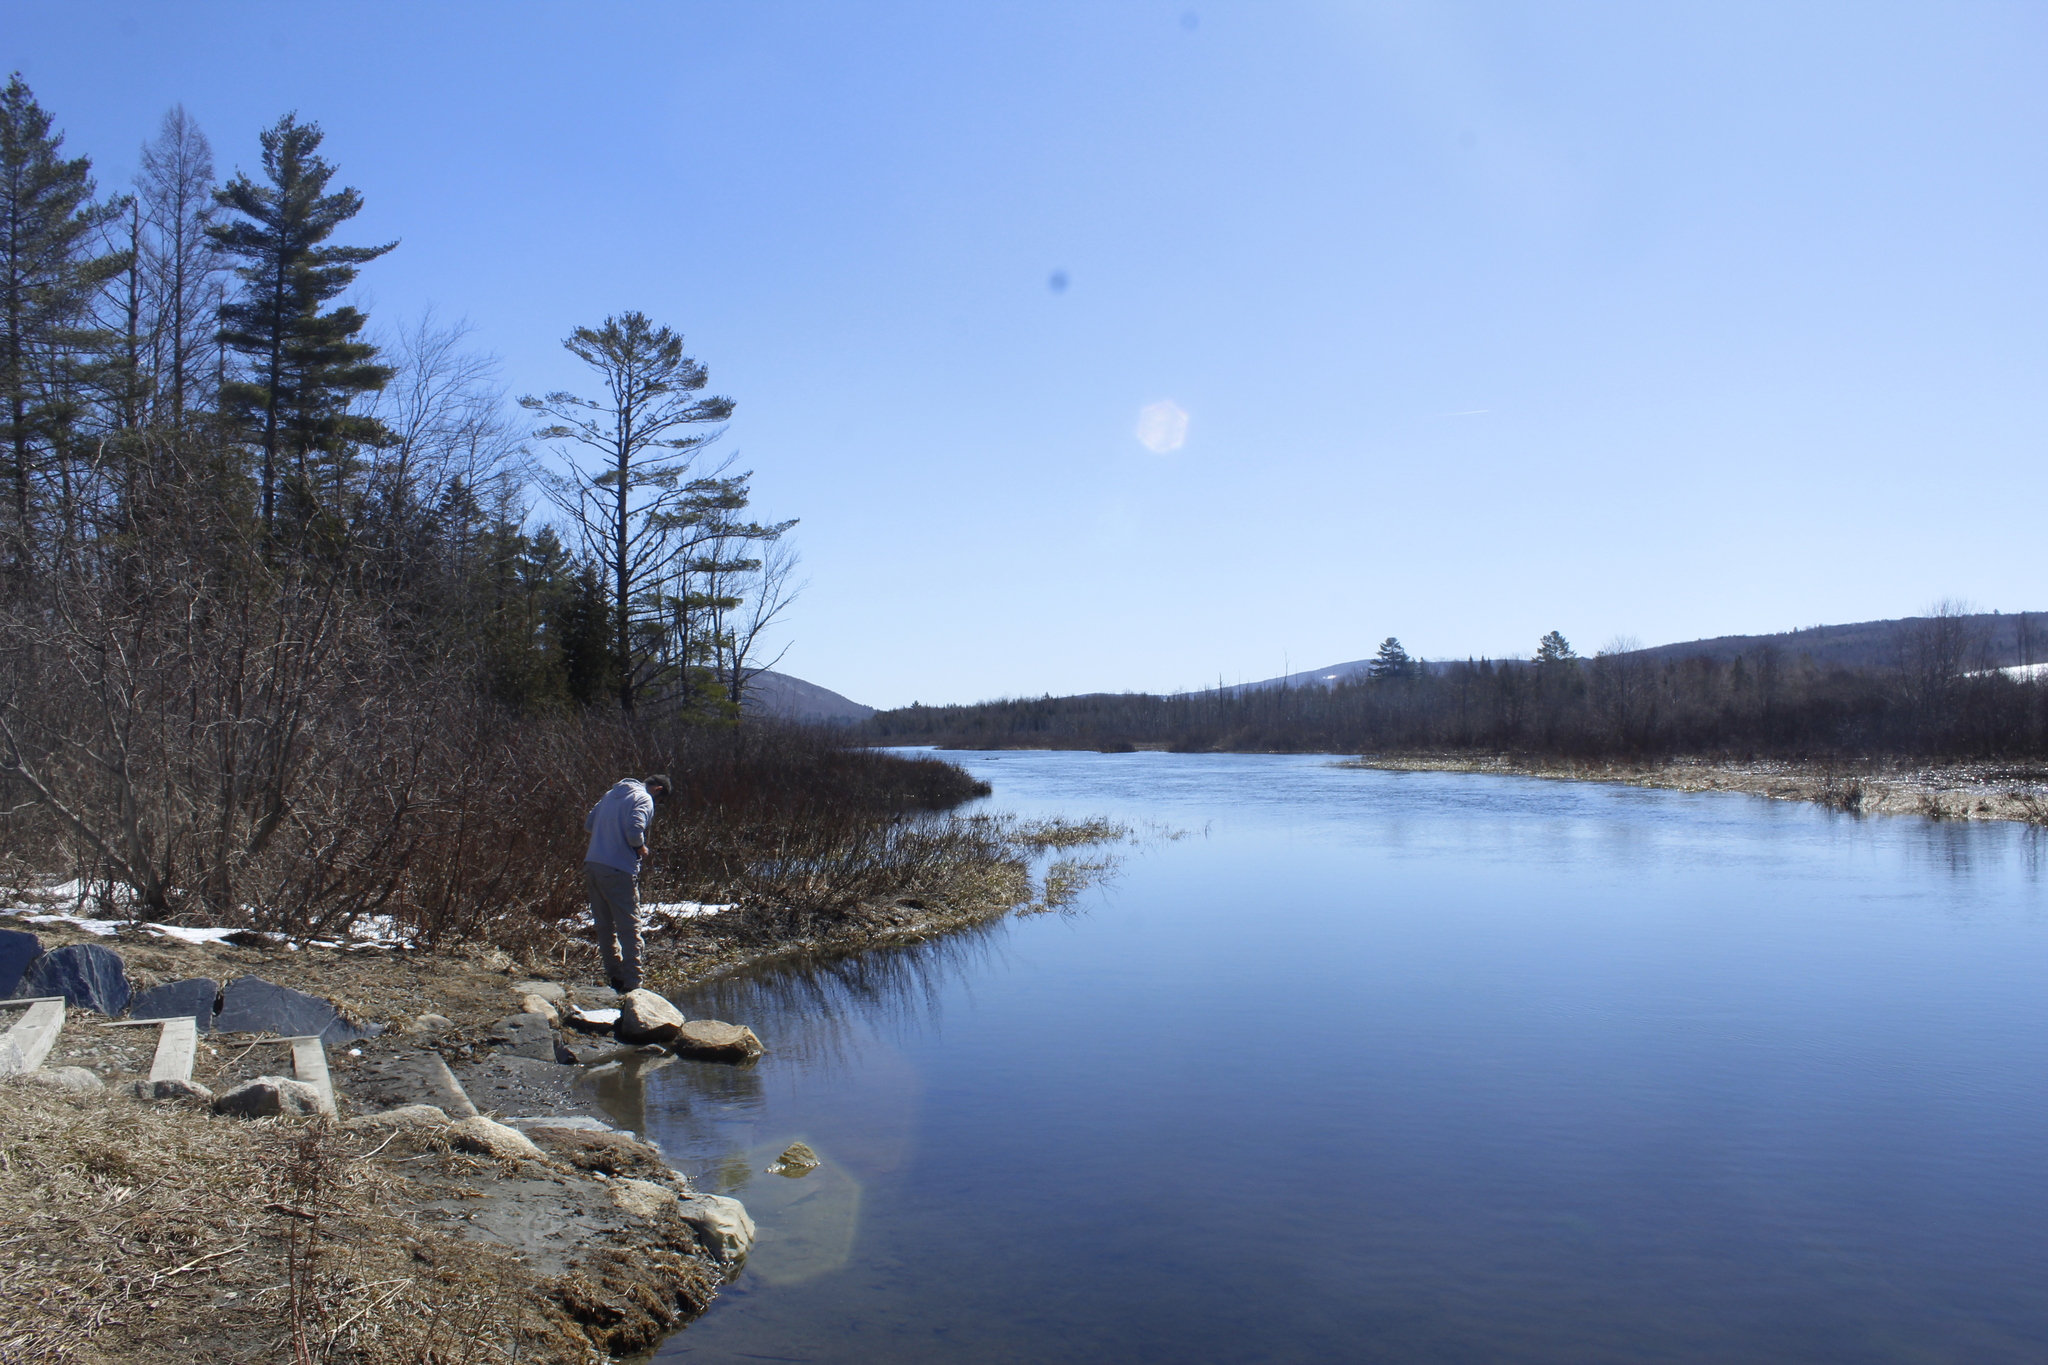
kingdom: Plantae
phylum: Tracheophyta
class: Pinopsida
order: Pinales
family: Pinaceae
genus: Pinus
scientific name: Pinus strobus
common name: Weymouth pine
